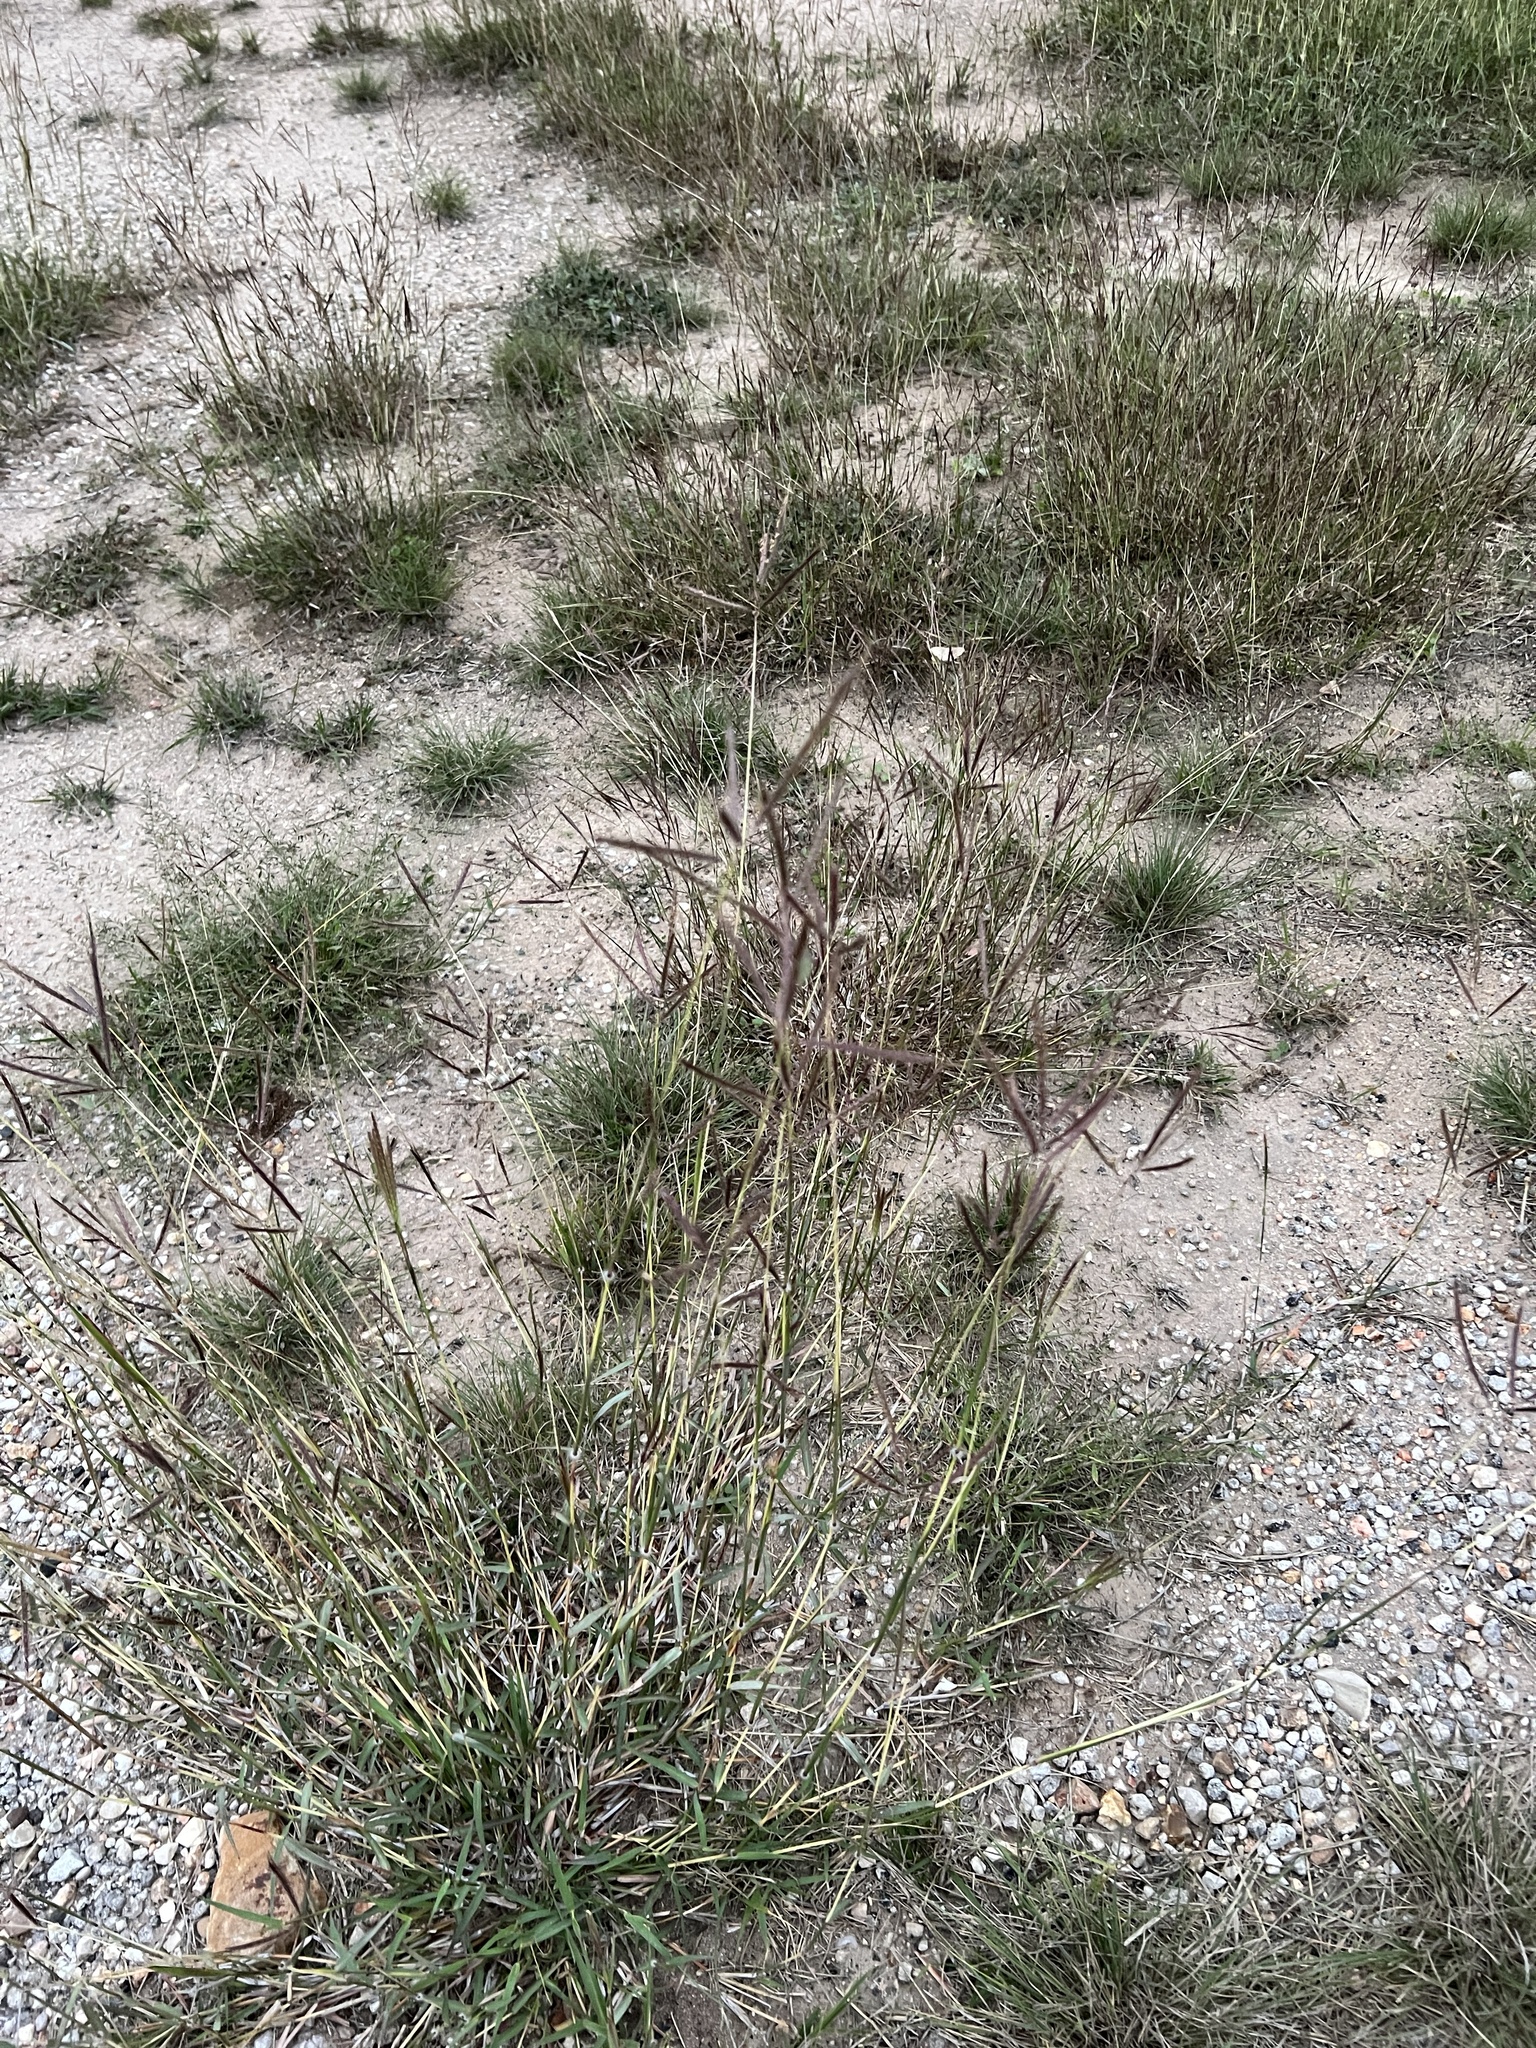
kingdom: Plantae
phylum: Tracheophyta
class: Liliopsida
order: Poales
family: Poaceae
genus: Dichanthium
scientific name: Dichanthium annulatum
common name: Kleberg's bluestem
